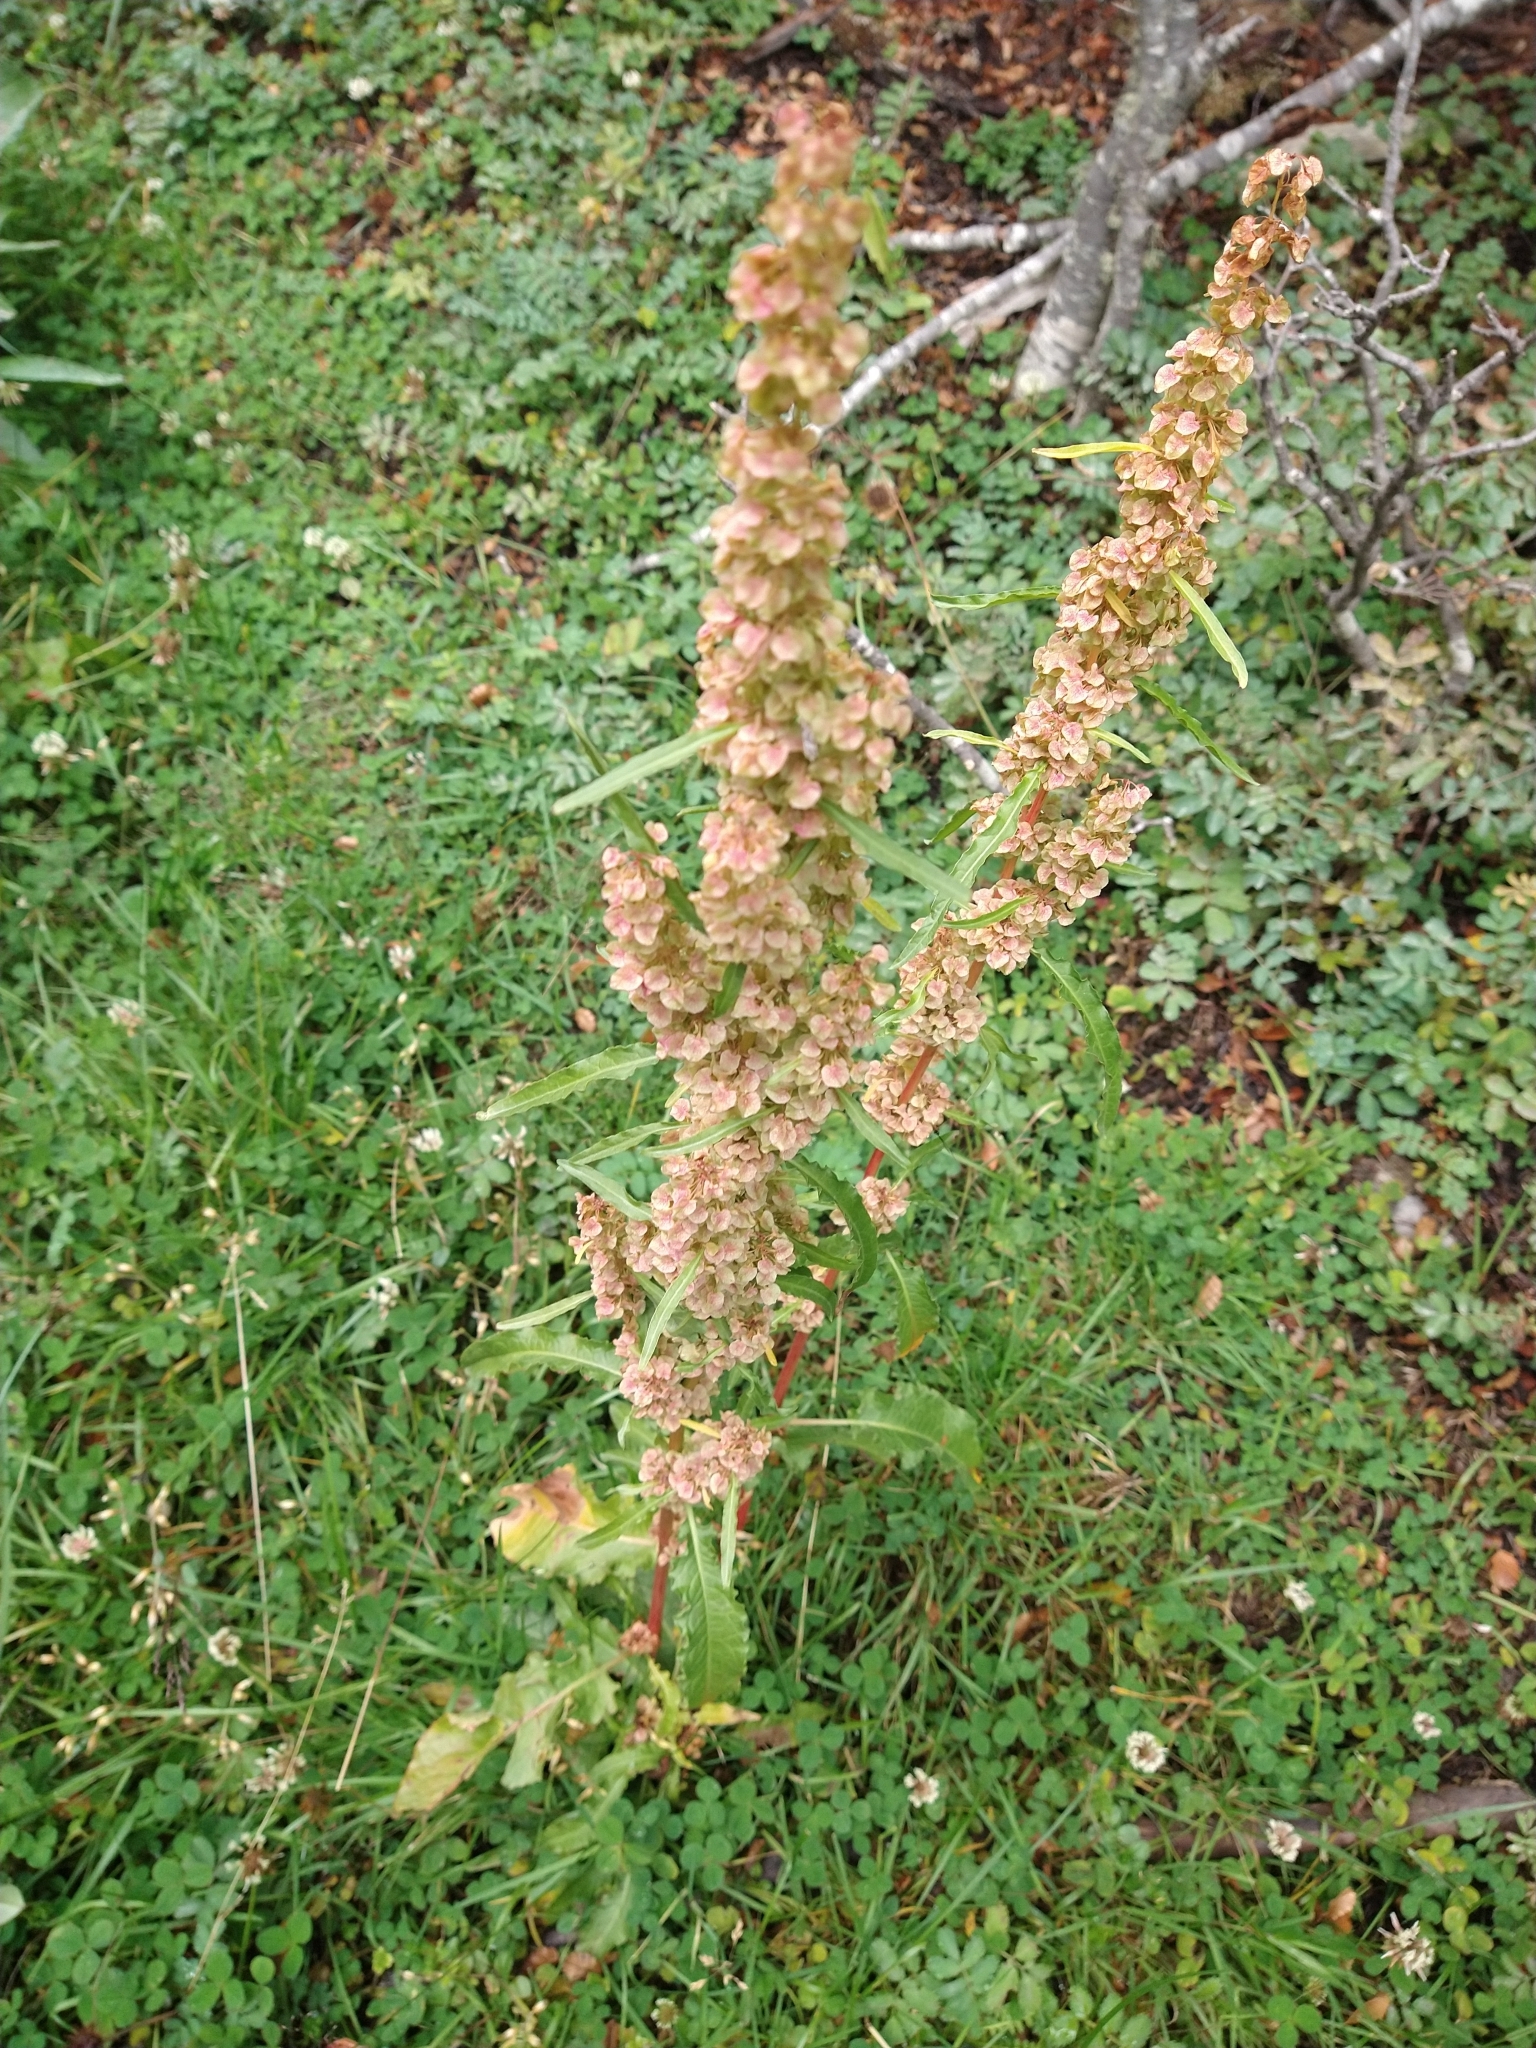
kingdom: Plantae
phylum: Tracheophyta
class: Magnoliopsida
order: Caryophyllales
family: Polygonaceae
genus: Rumex
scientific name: Rumex crispus
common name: Curled dock
